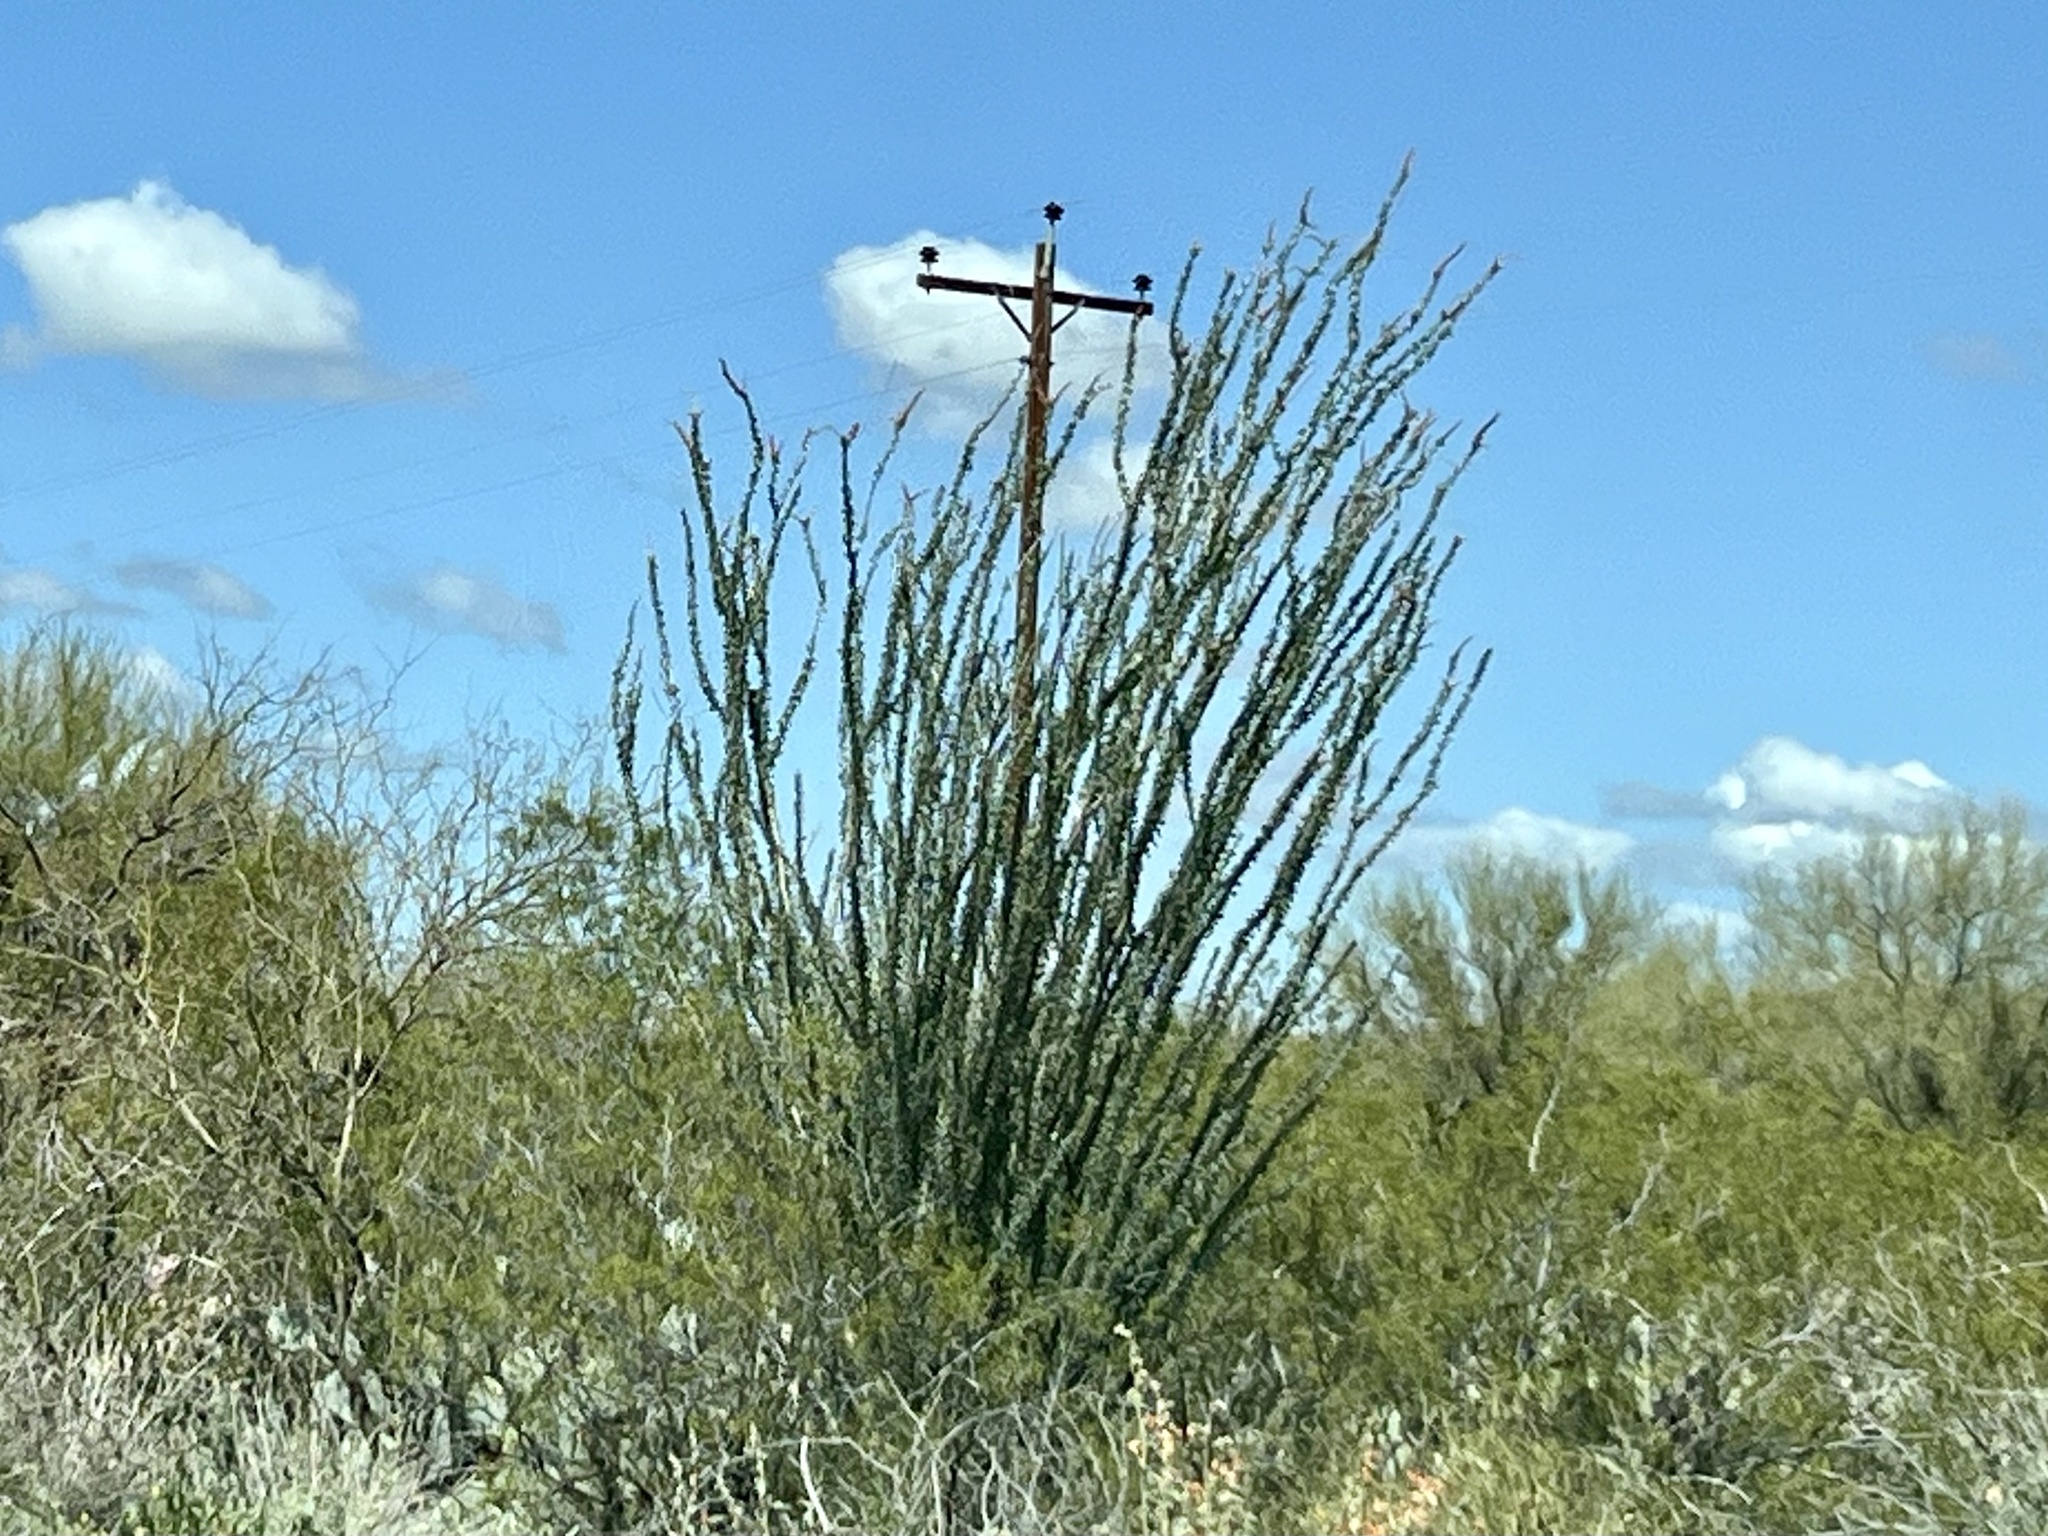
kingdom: Plantae
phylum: Tracheophyta
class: Magnoliopsida
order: Ericales
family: Fouquieriaceae
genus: Fouquieria
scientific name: Fouquieria splendens
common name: Vine-cactus
